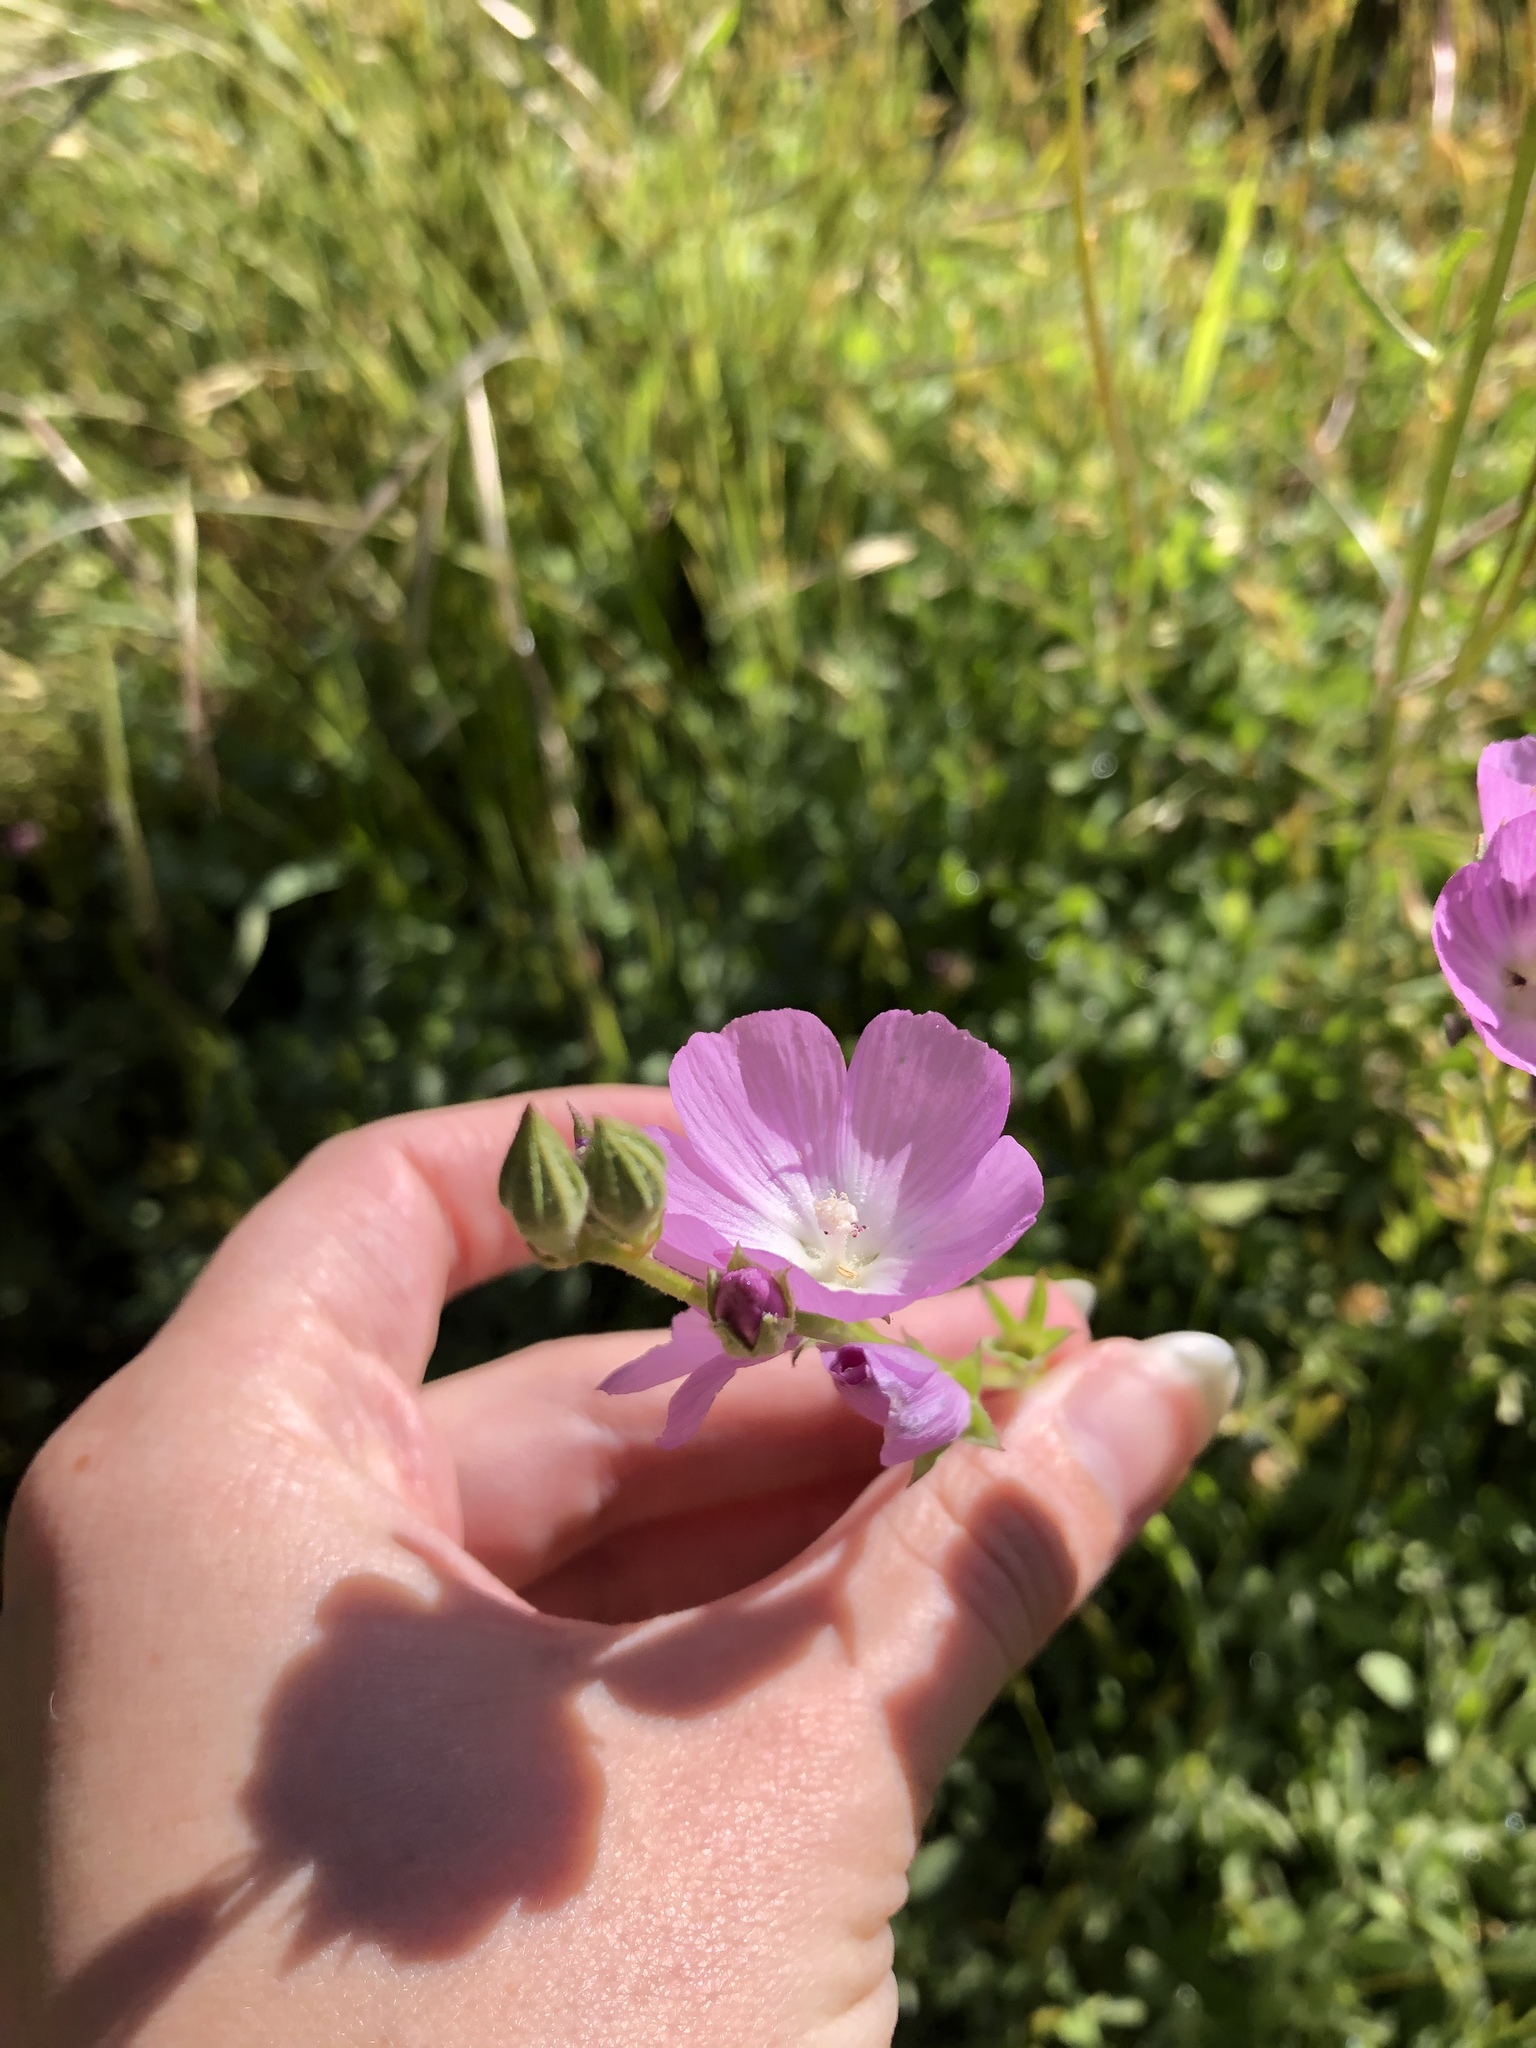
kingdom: Plantae
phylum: Tracheophyta
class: Magnoliopsida
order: Malvales
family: Malvaceae
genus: Sidalcea
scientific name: Sidalcea sparsifolia
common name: Southern checkerbloom
